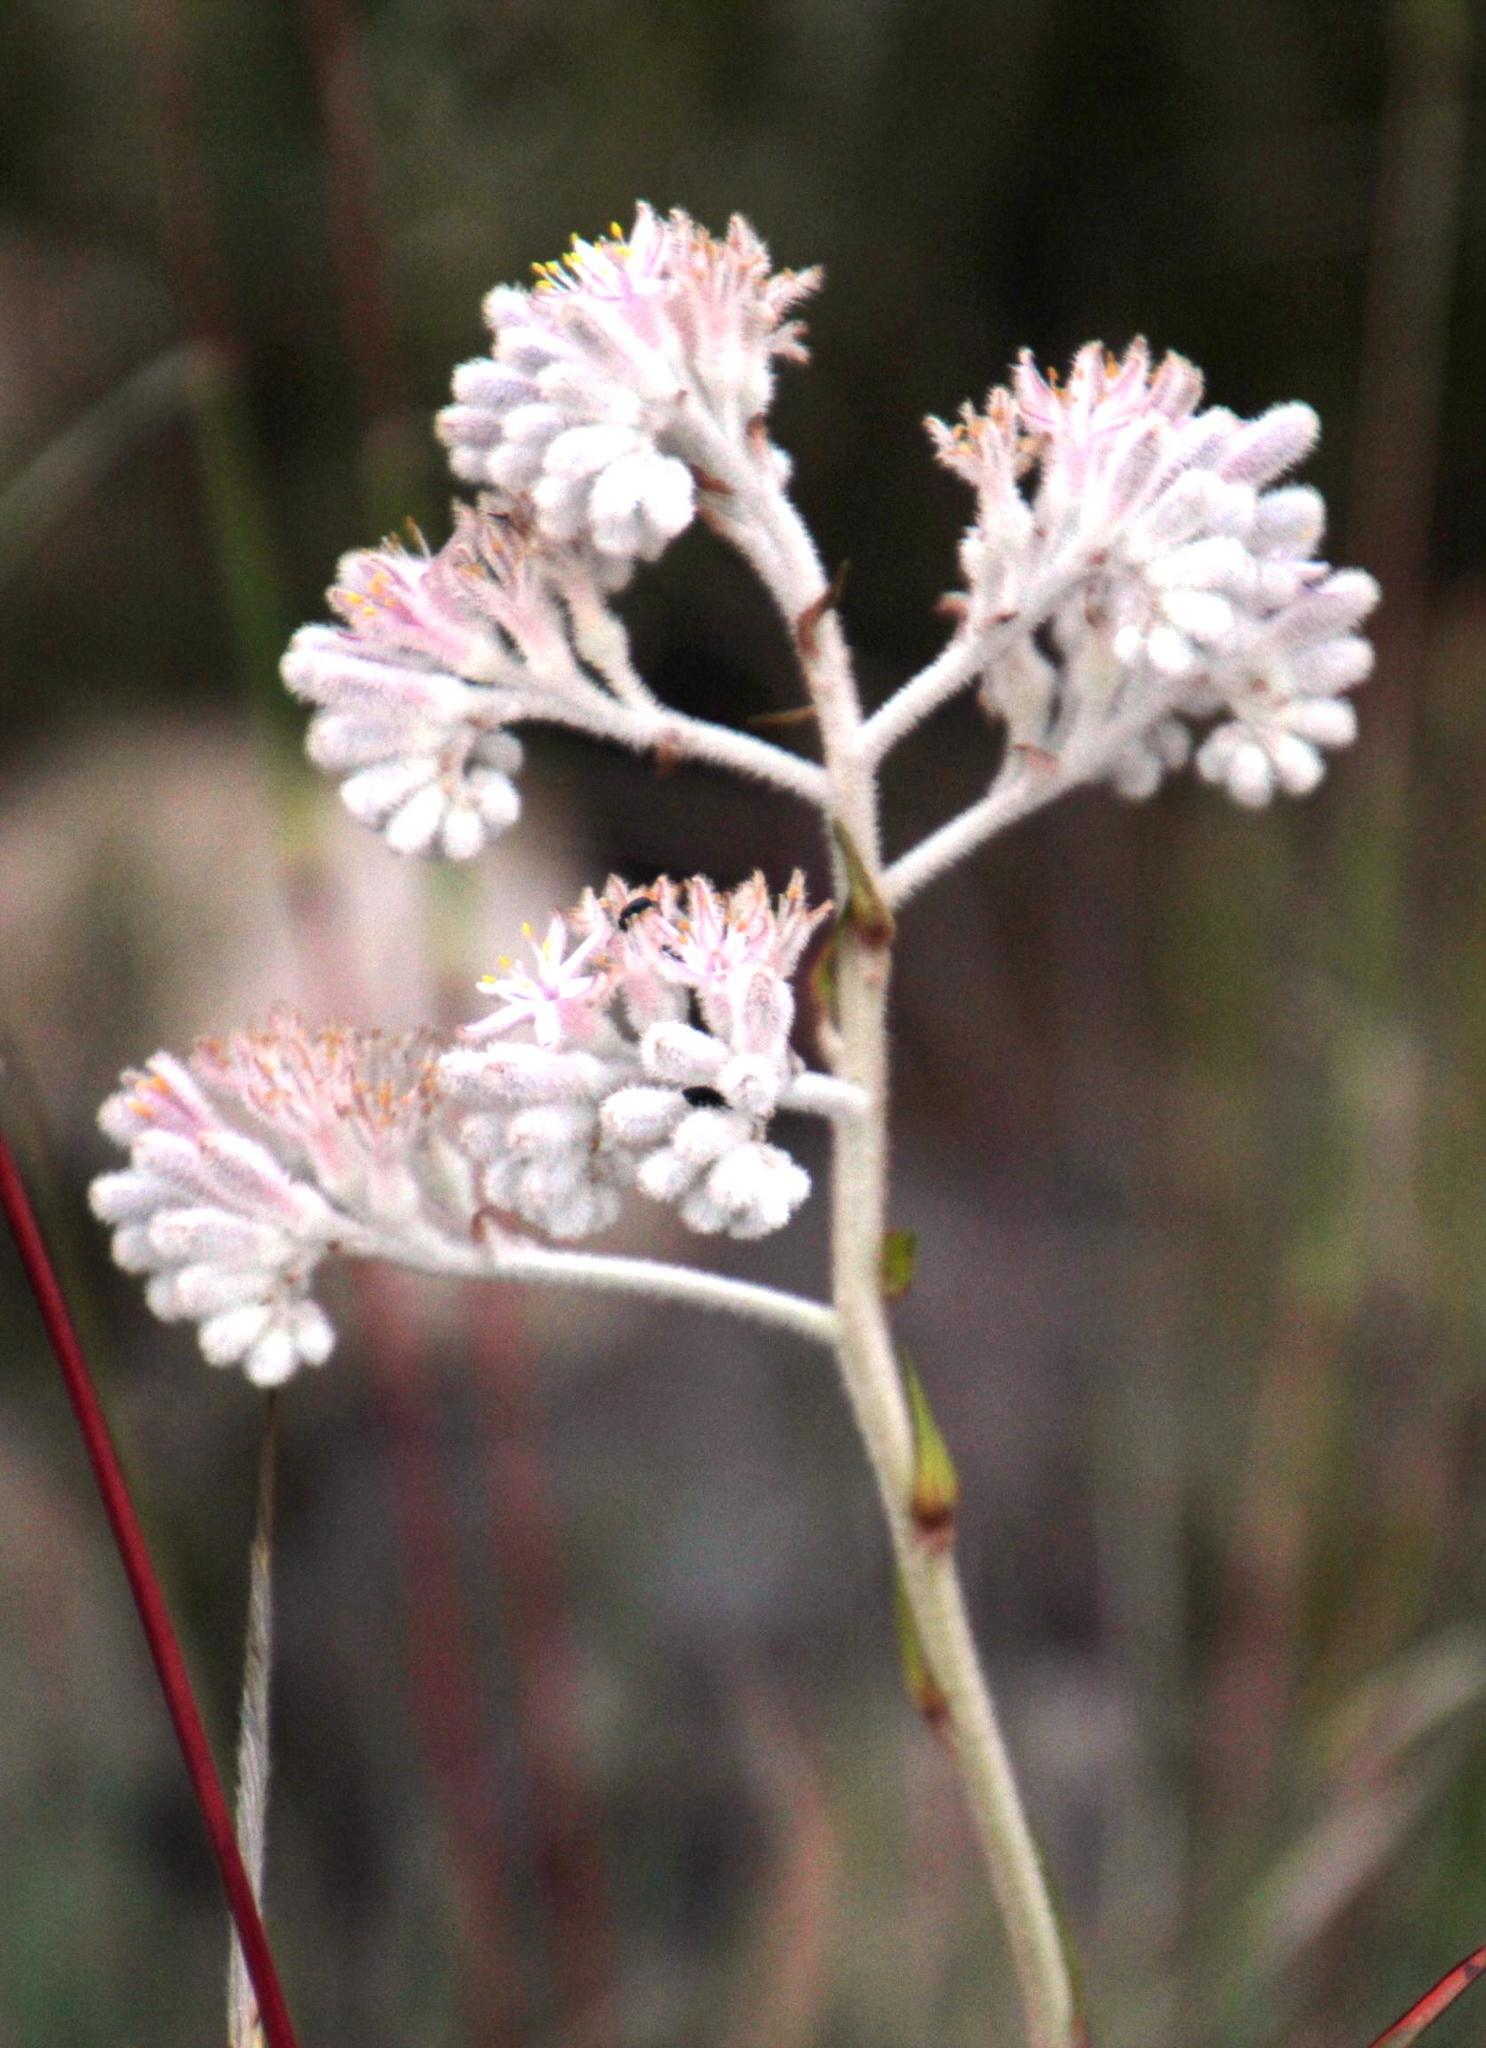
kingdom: Plantae
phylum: Tracheophyta
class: Liliopsida
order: Asparagales
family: Lanariaceae
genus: Lanaria
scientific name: Lanaria lanata
